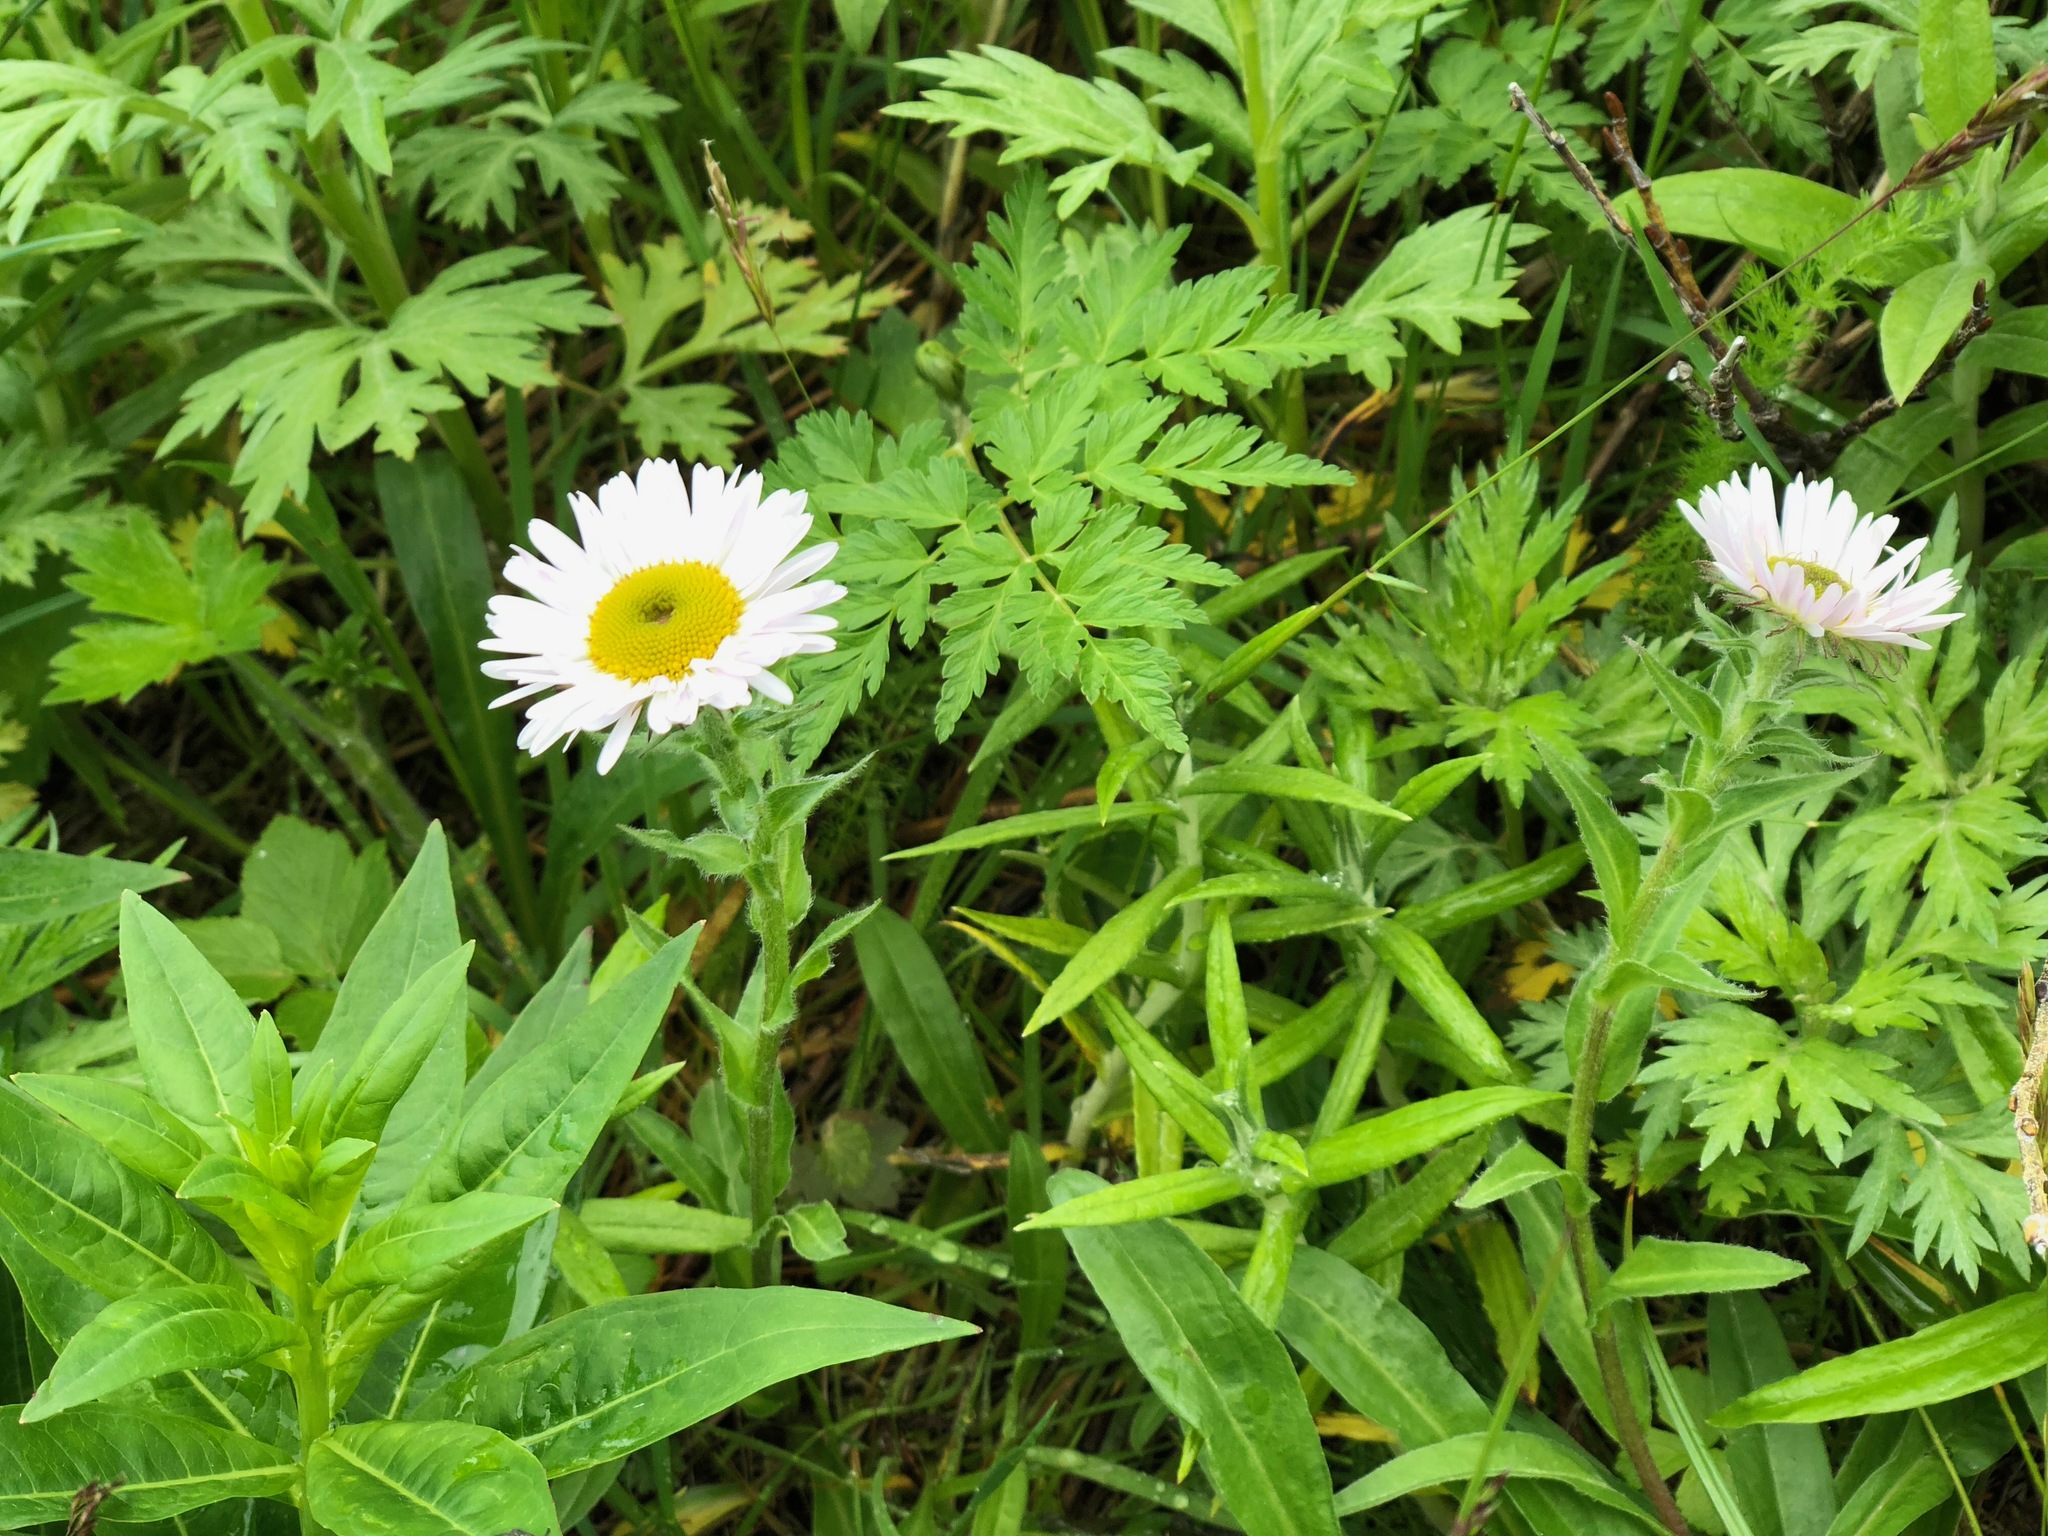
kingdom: Plantae
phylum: Tracheophyta
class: Magnoliopsida
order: Asterales
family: Asteraceae
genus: Erigeron
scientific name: Erigeron peregrinus
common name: Peregrine fleabane
